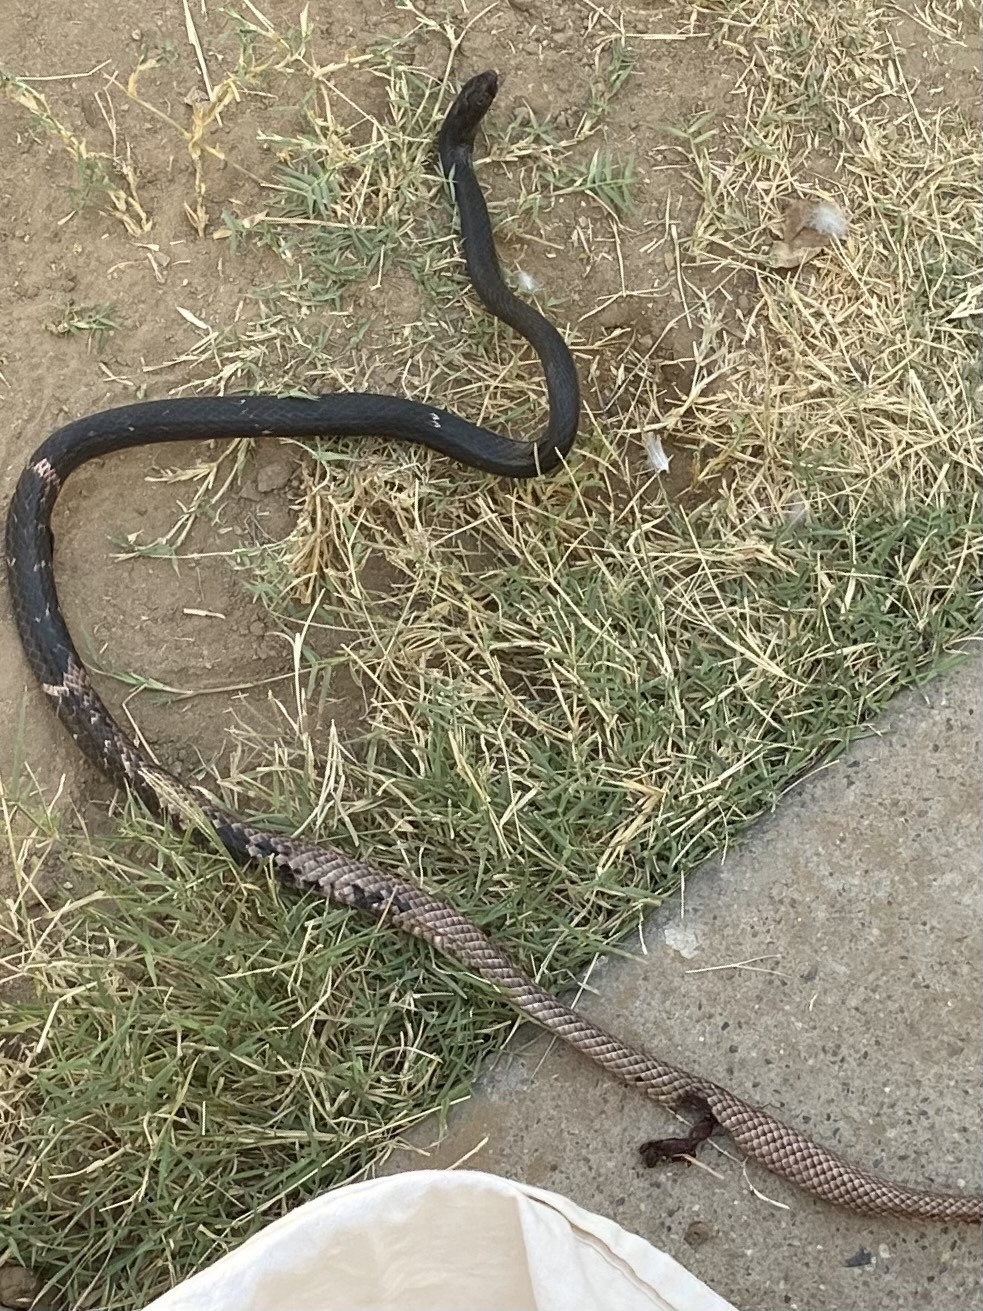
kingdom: Animalia
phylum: Chordata
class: Squamata
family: Colubridae
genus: Masticophis
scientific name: Masticophis flagellum
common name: Coachwhip
